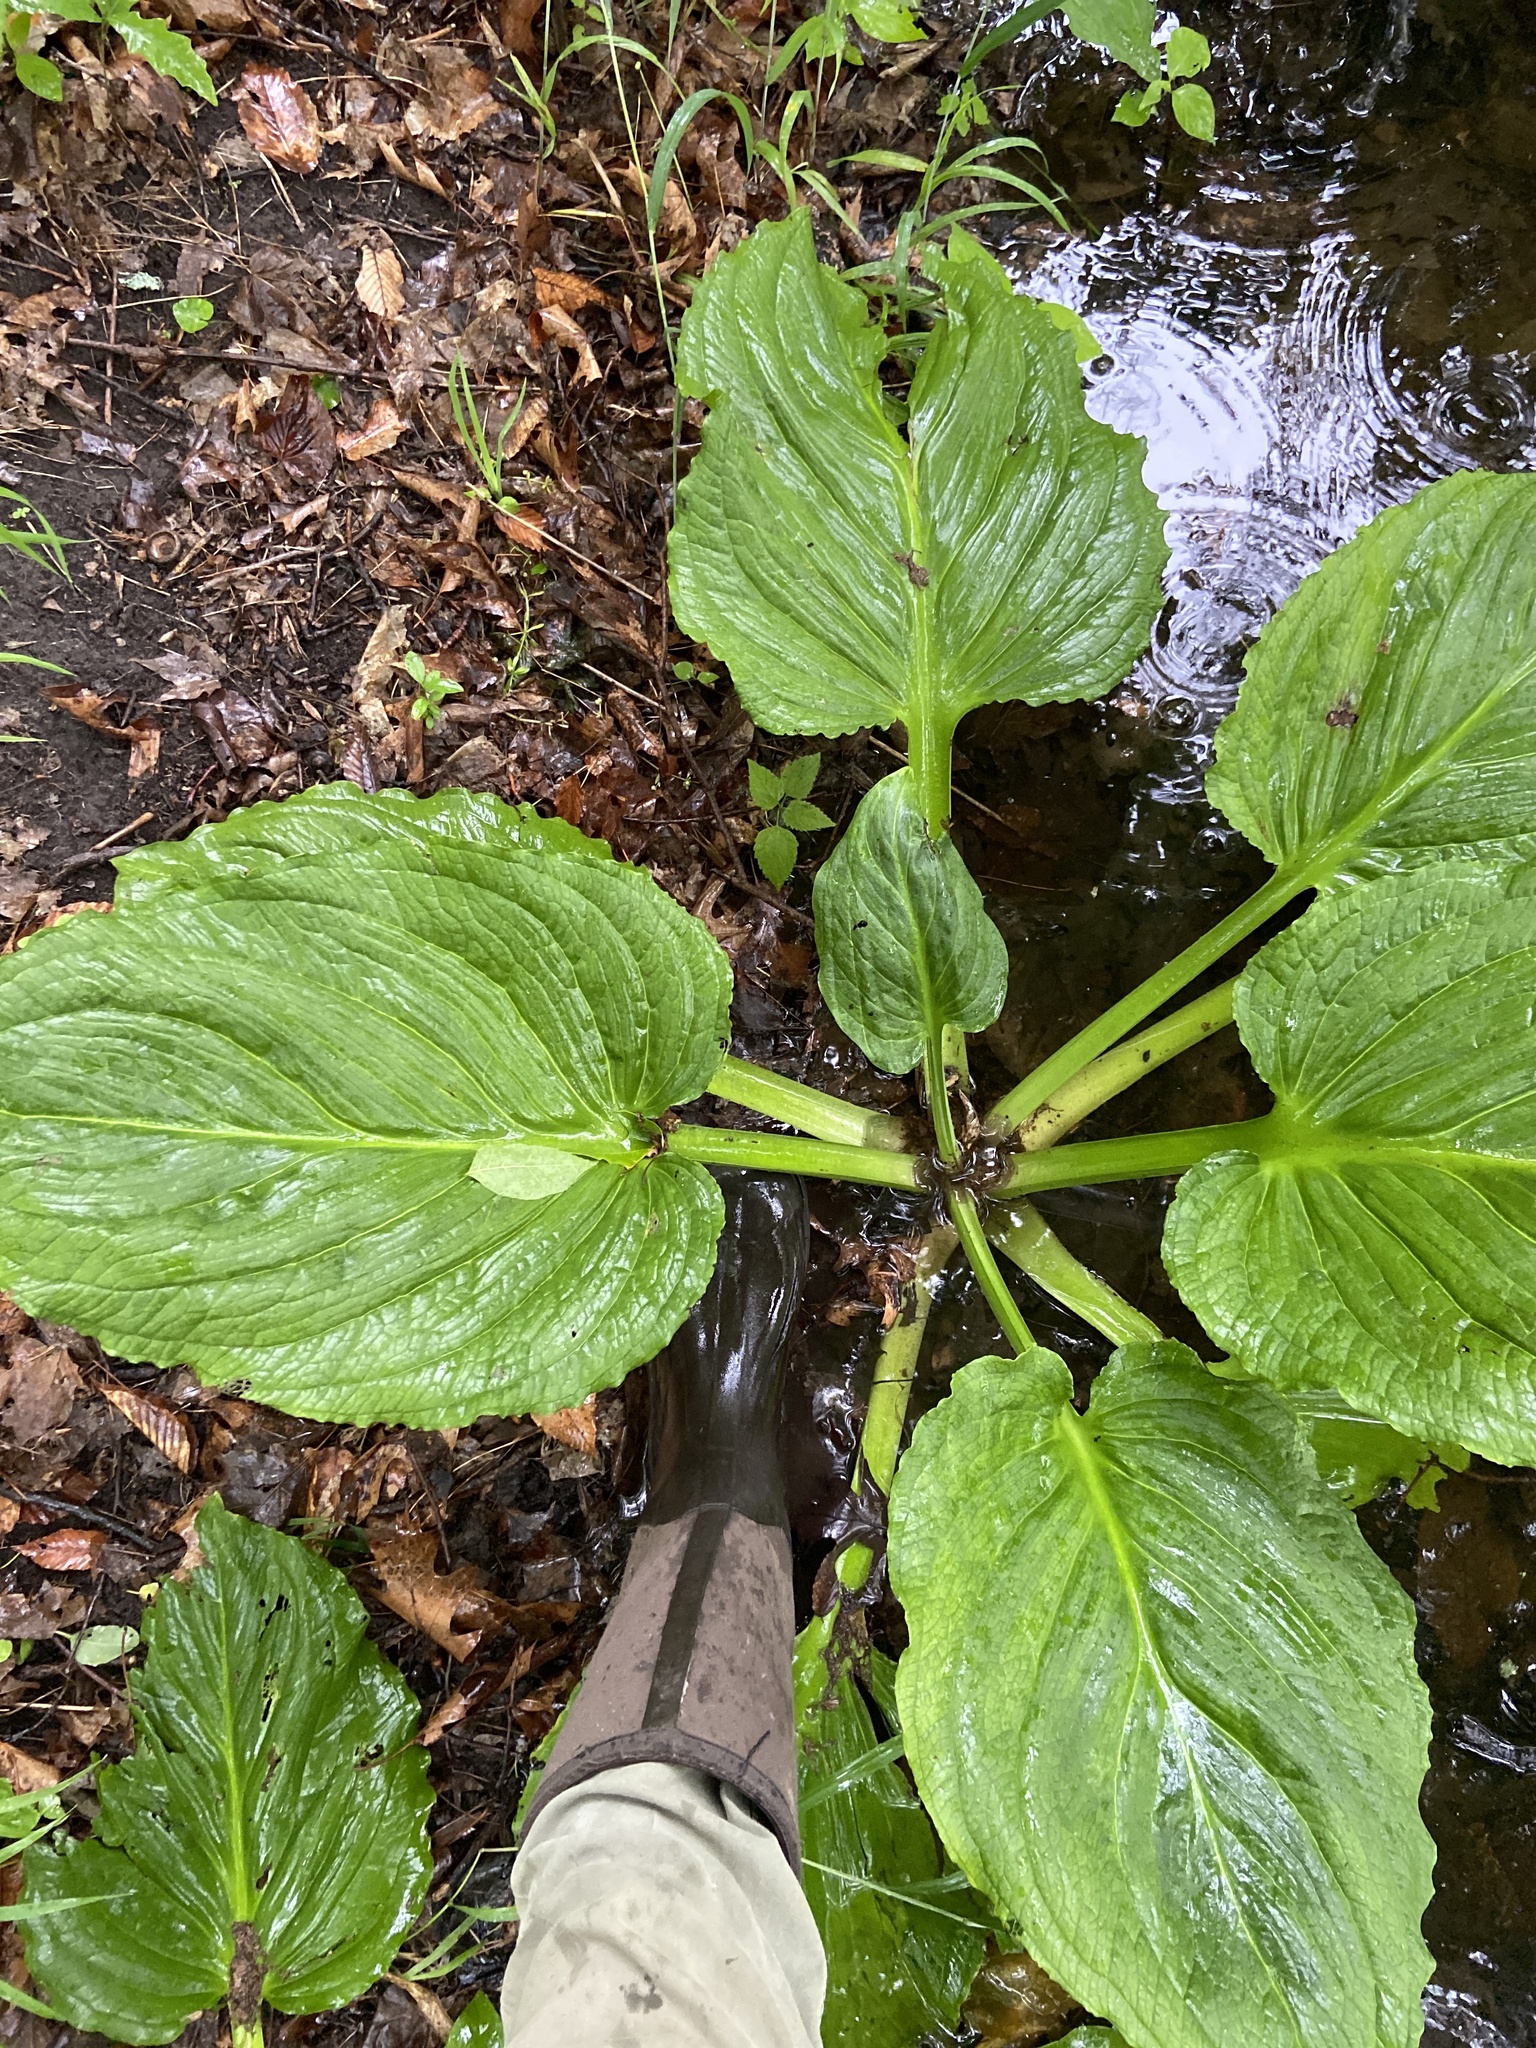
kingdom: Plantae
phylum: Tracheophyta
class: Liliopsida
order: Alismatales
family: Araceae
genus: Symplocarpus
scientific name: Symplocarpus foetidus
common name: Eastern skunk cabbage
